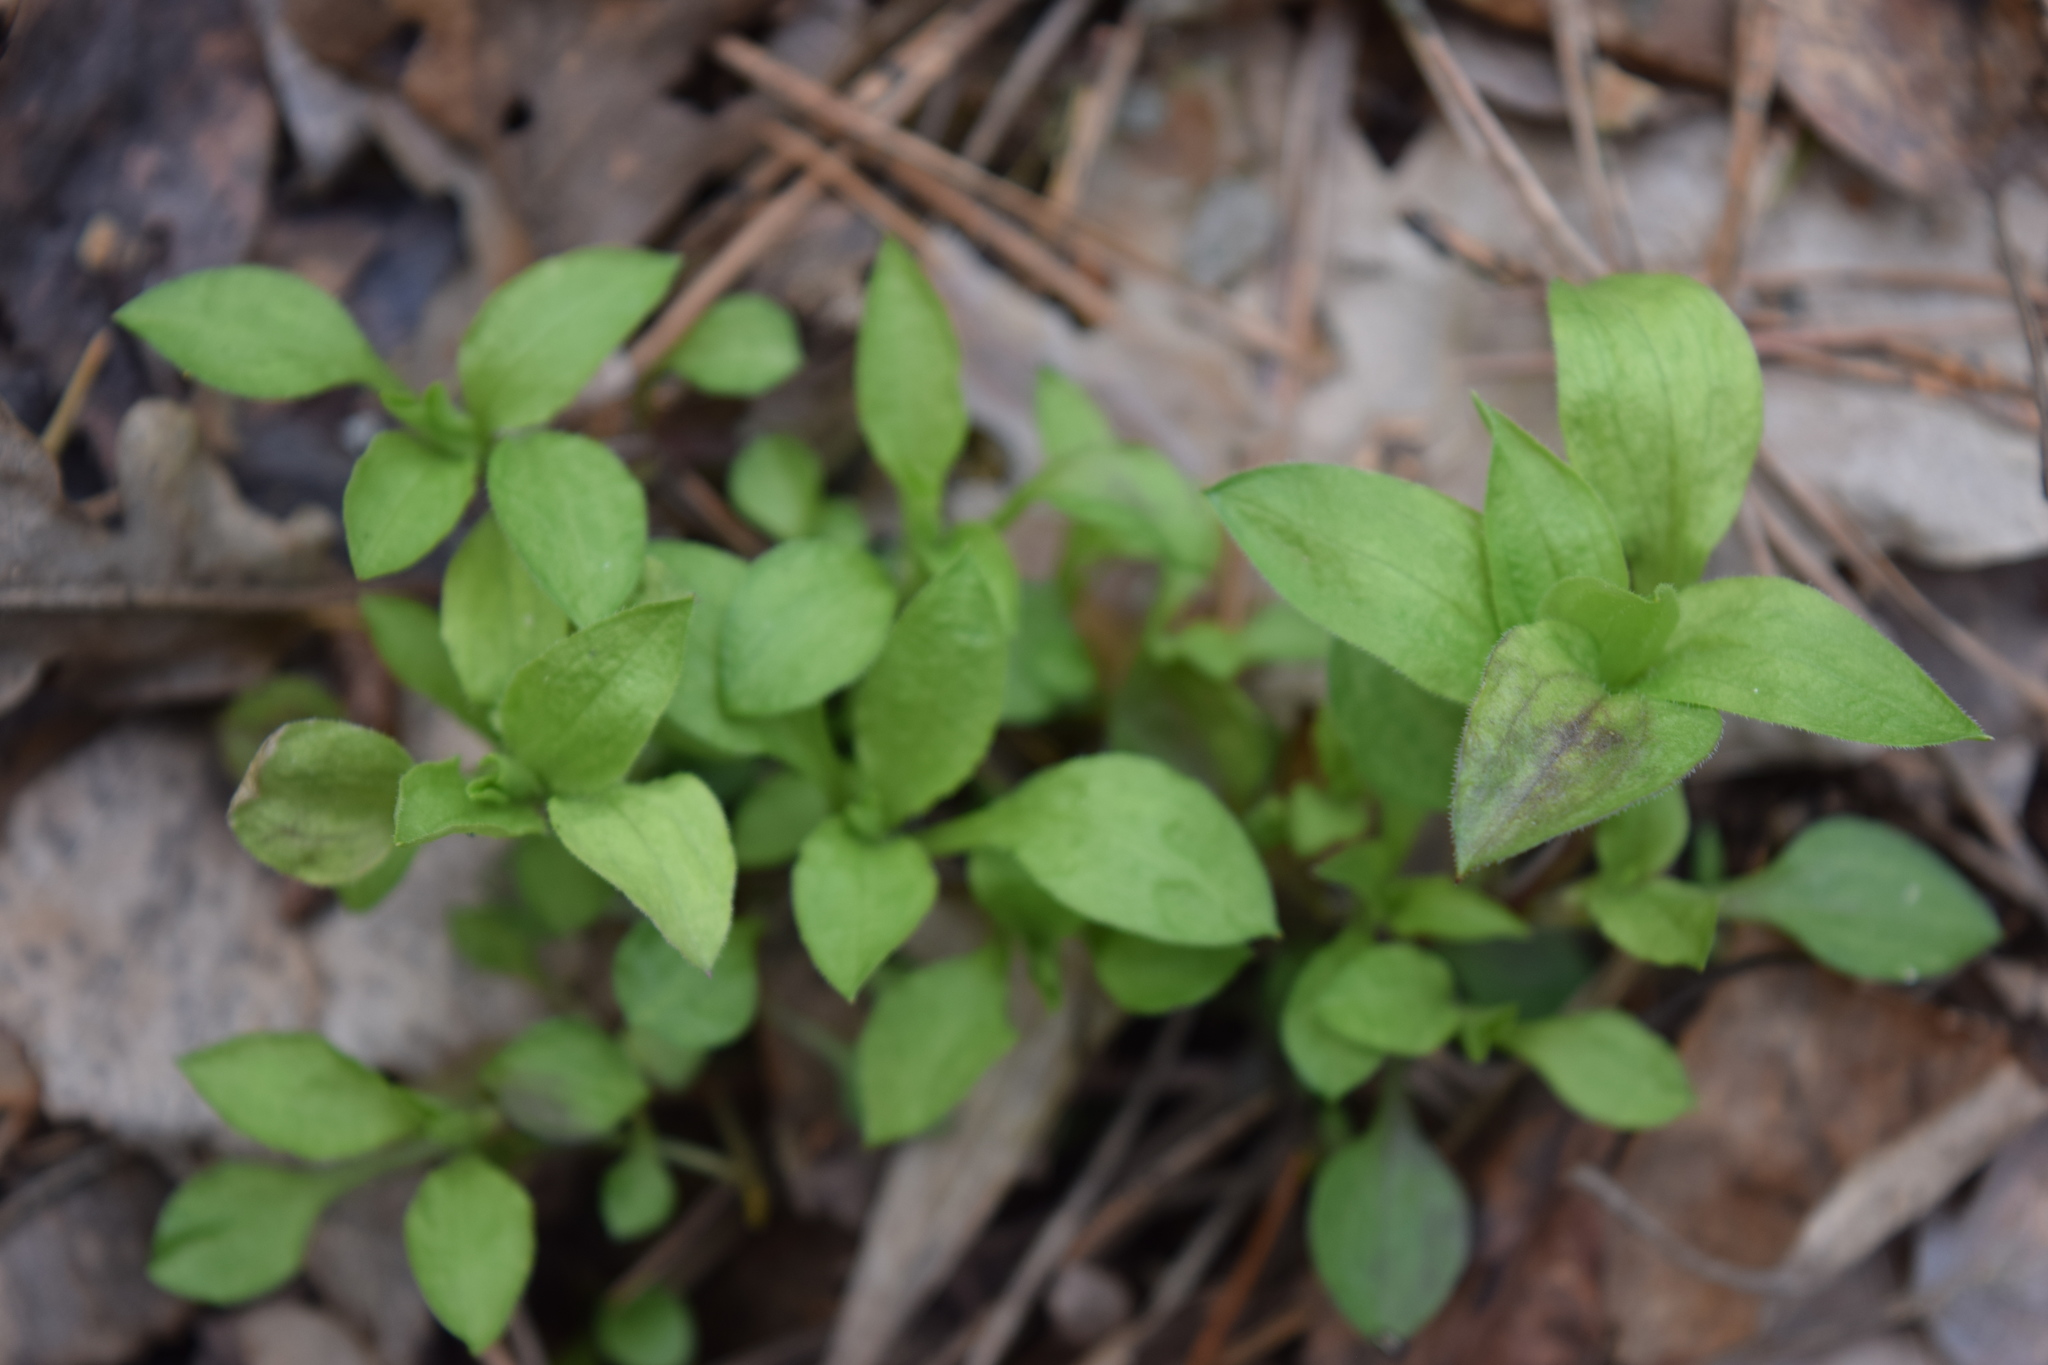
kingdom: Plantae
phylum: Tracheophyta
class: Magnoliopsida
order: Caryophyllales
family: Caryophyllaceae
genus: Moehringia
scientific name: Moehringia trinervia
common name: Three-nerved sandwort
